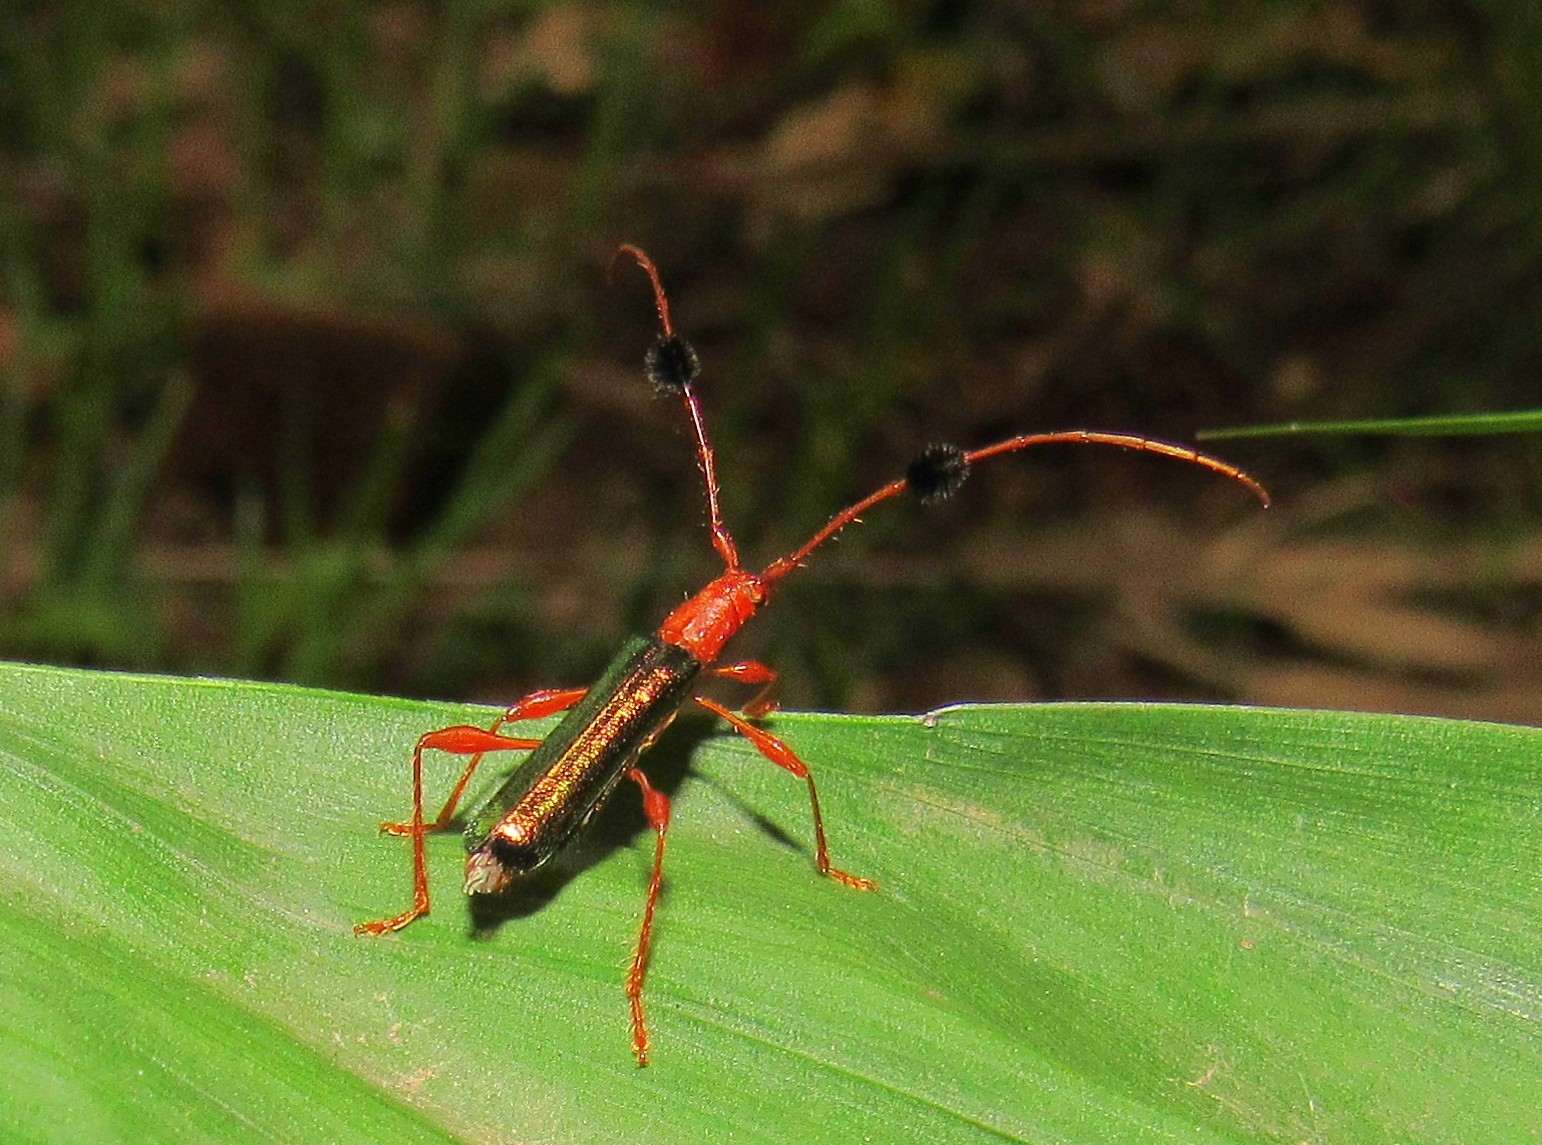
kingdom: Animalia
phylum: Arthropoda
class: Insecta
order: Coleoptera
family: Cerambycidae
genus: Unxia
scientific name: Unxia gracilior
